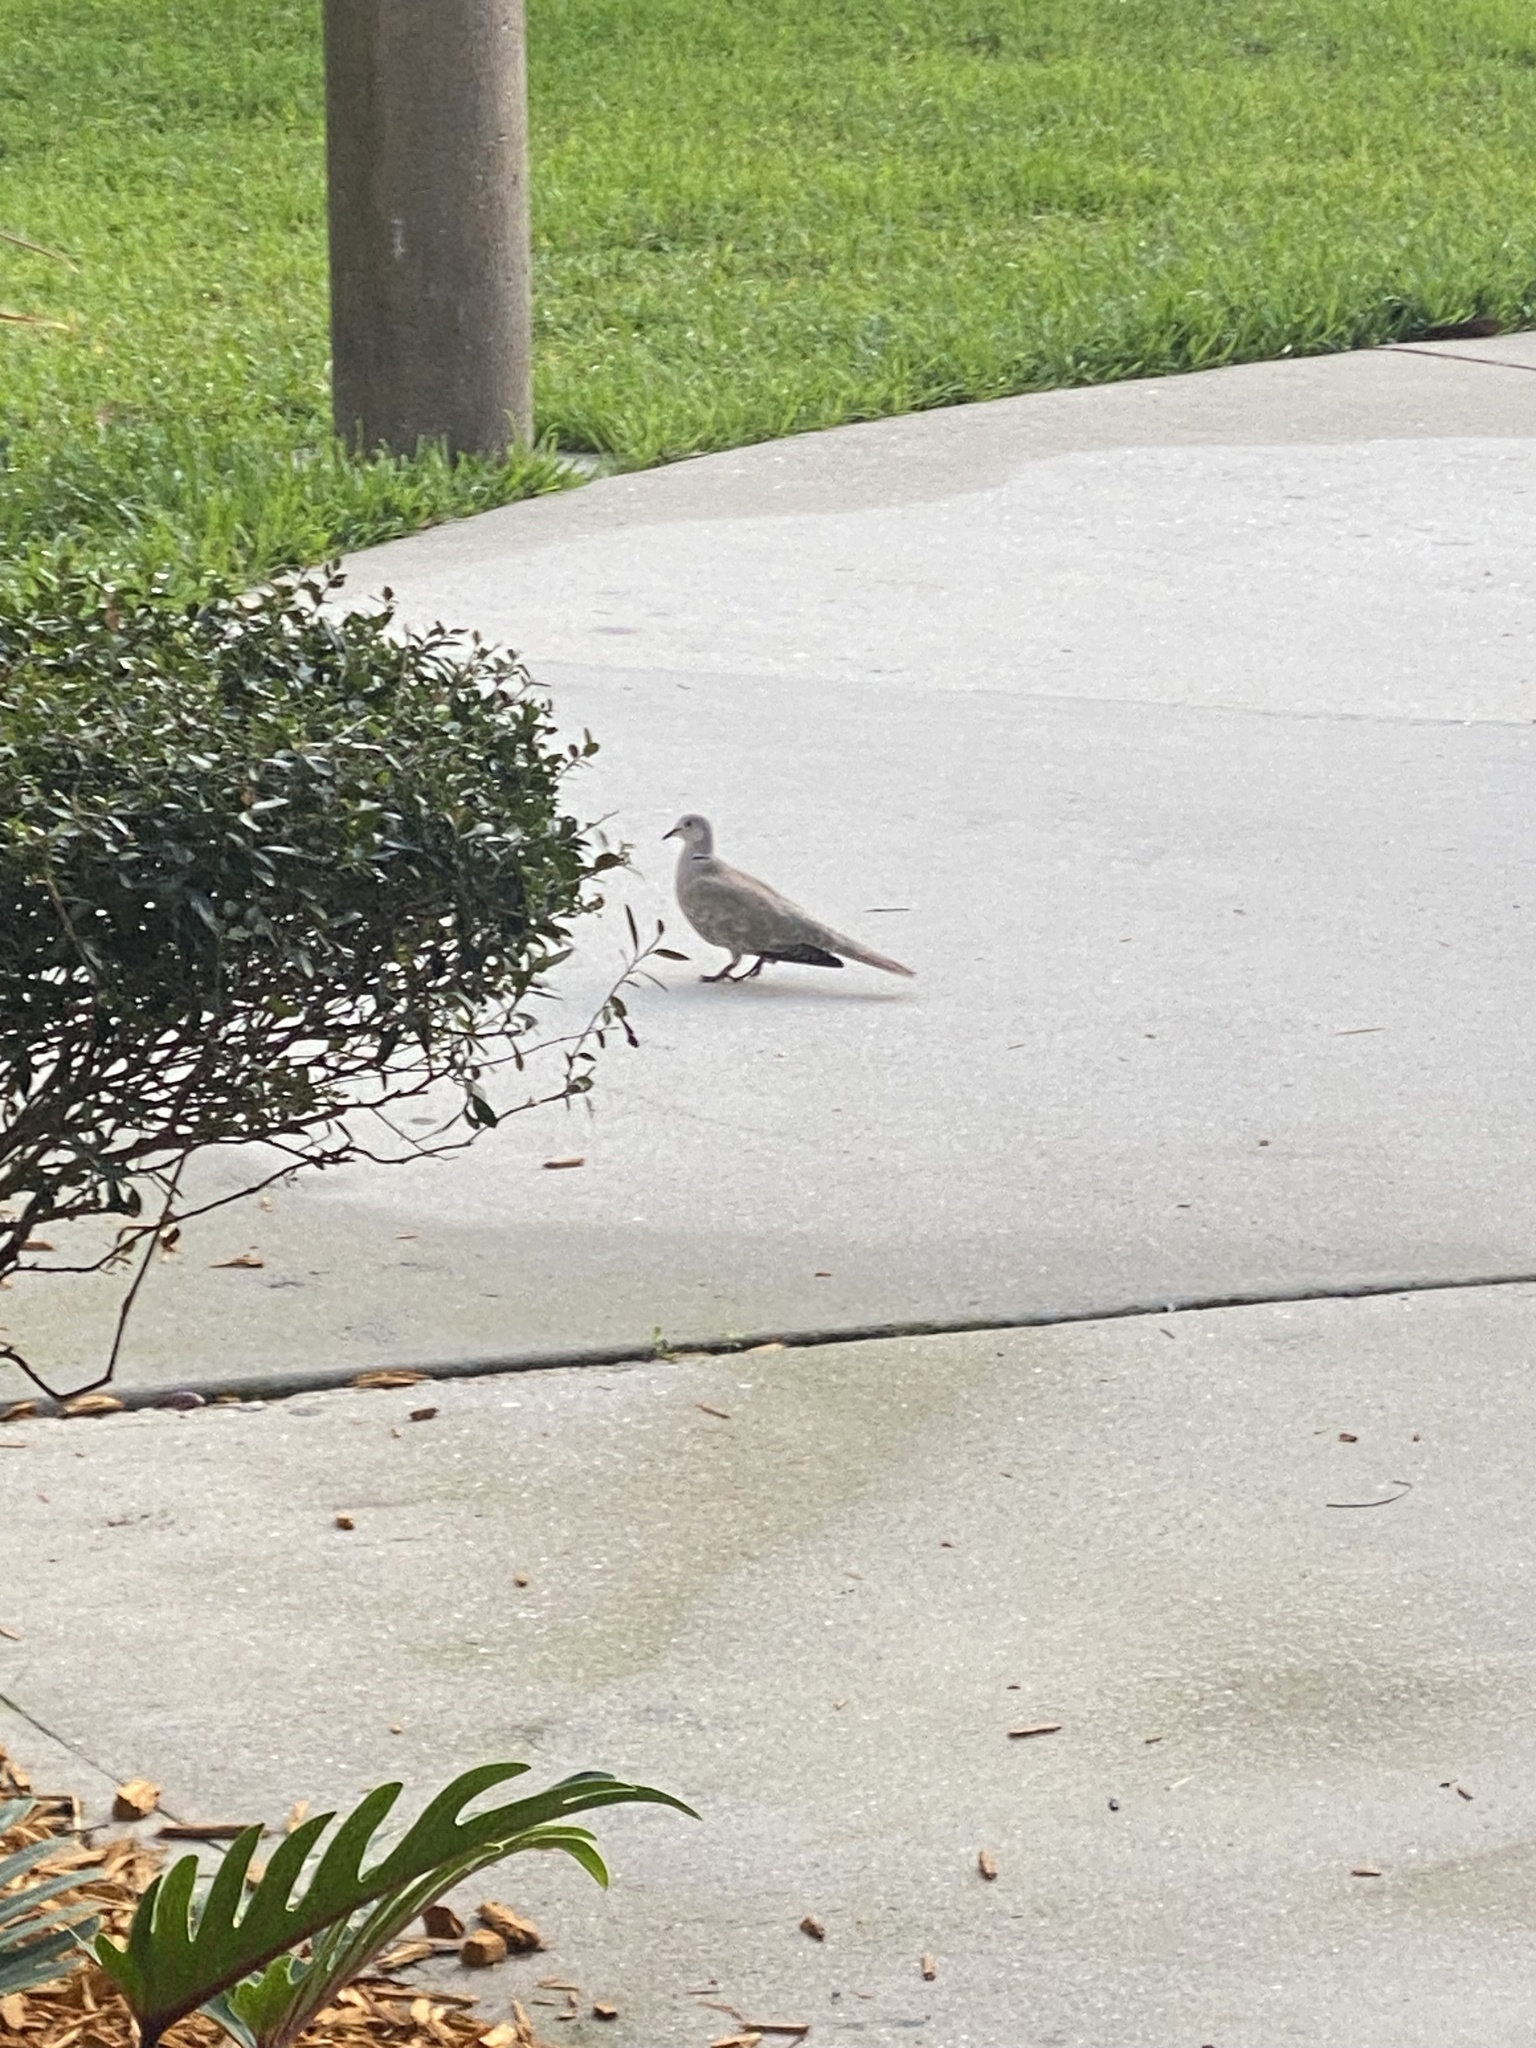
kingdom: Animalia
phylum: Chordata
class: Aves
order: Columbiformes
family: Columbidae
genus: Streptopelia
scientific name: Streptopelia decaocto
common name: Eurasian collared dove
